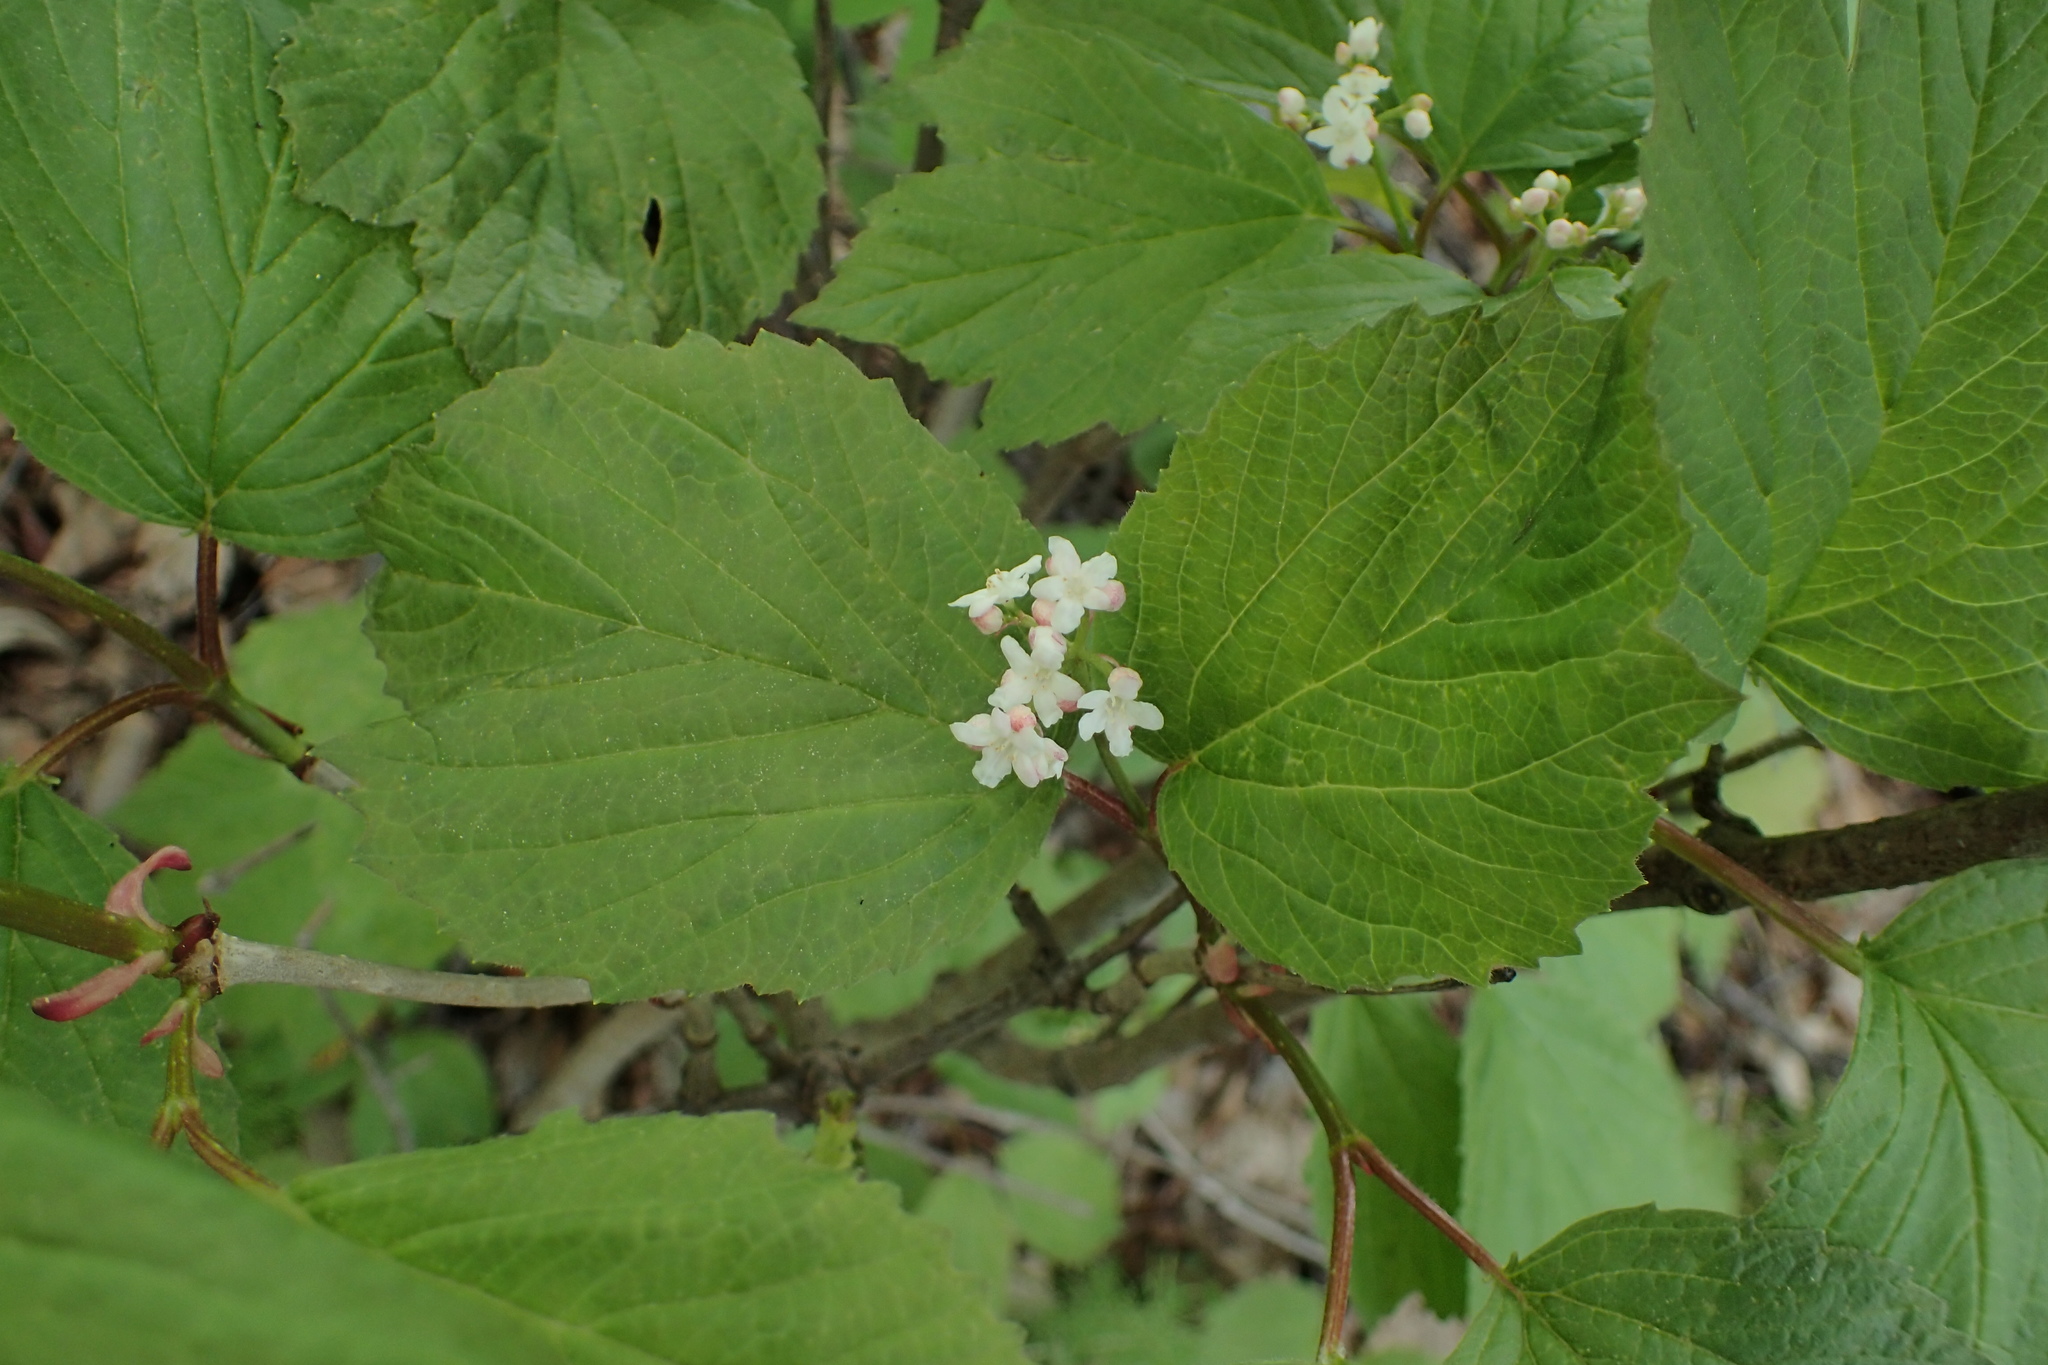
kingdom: Plantae
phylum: Tracheophyta
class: Magnoliopsida
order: Dipsacales
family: Viburnaceae
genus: Viburnum
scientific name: Viburnum edule
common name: Mooseberry
